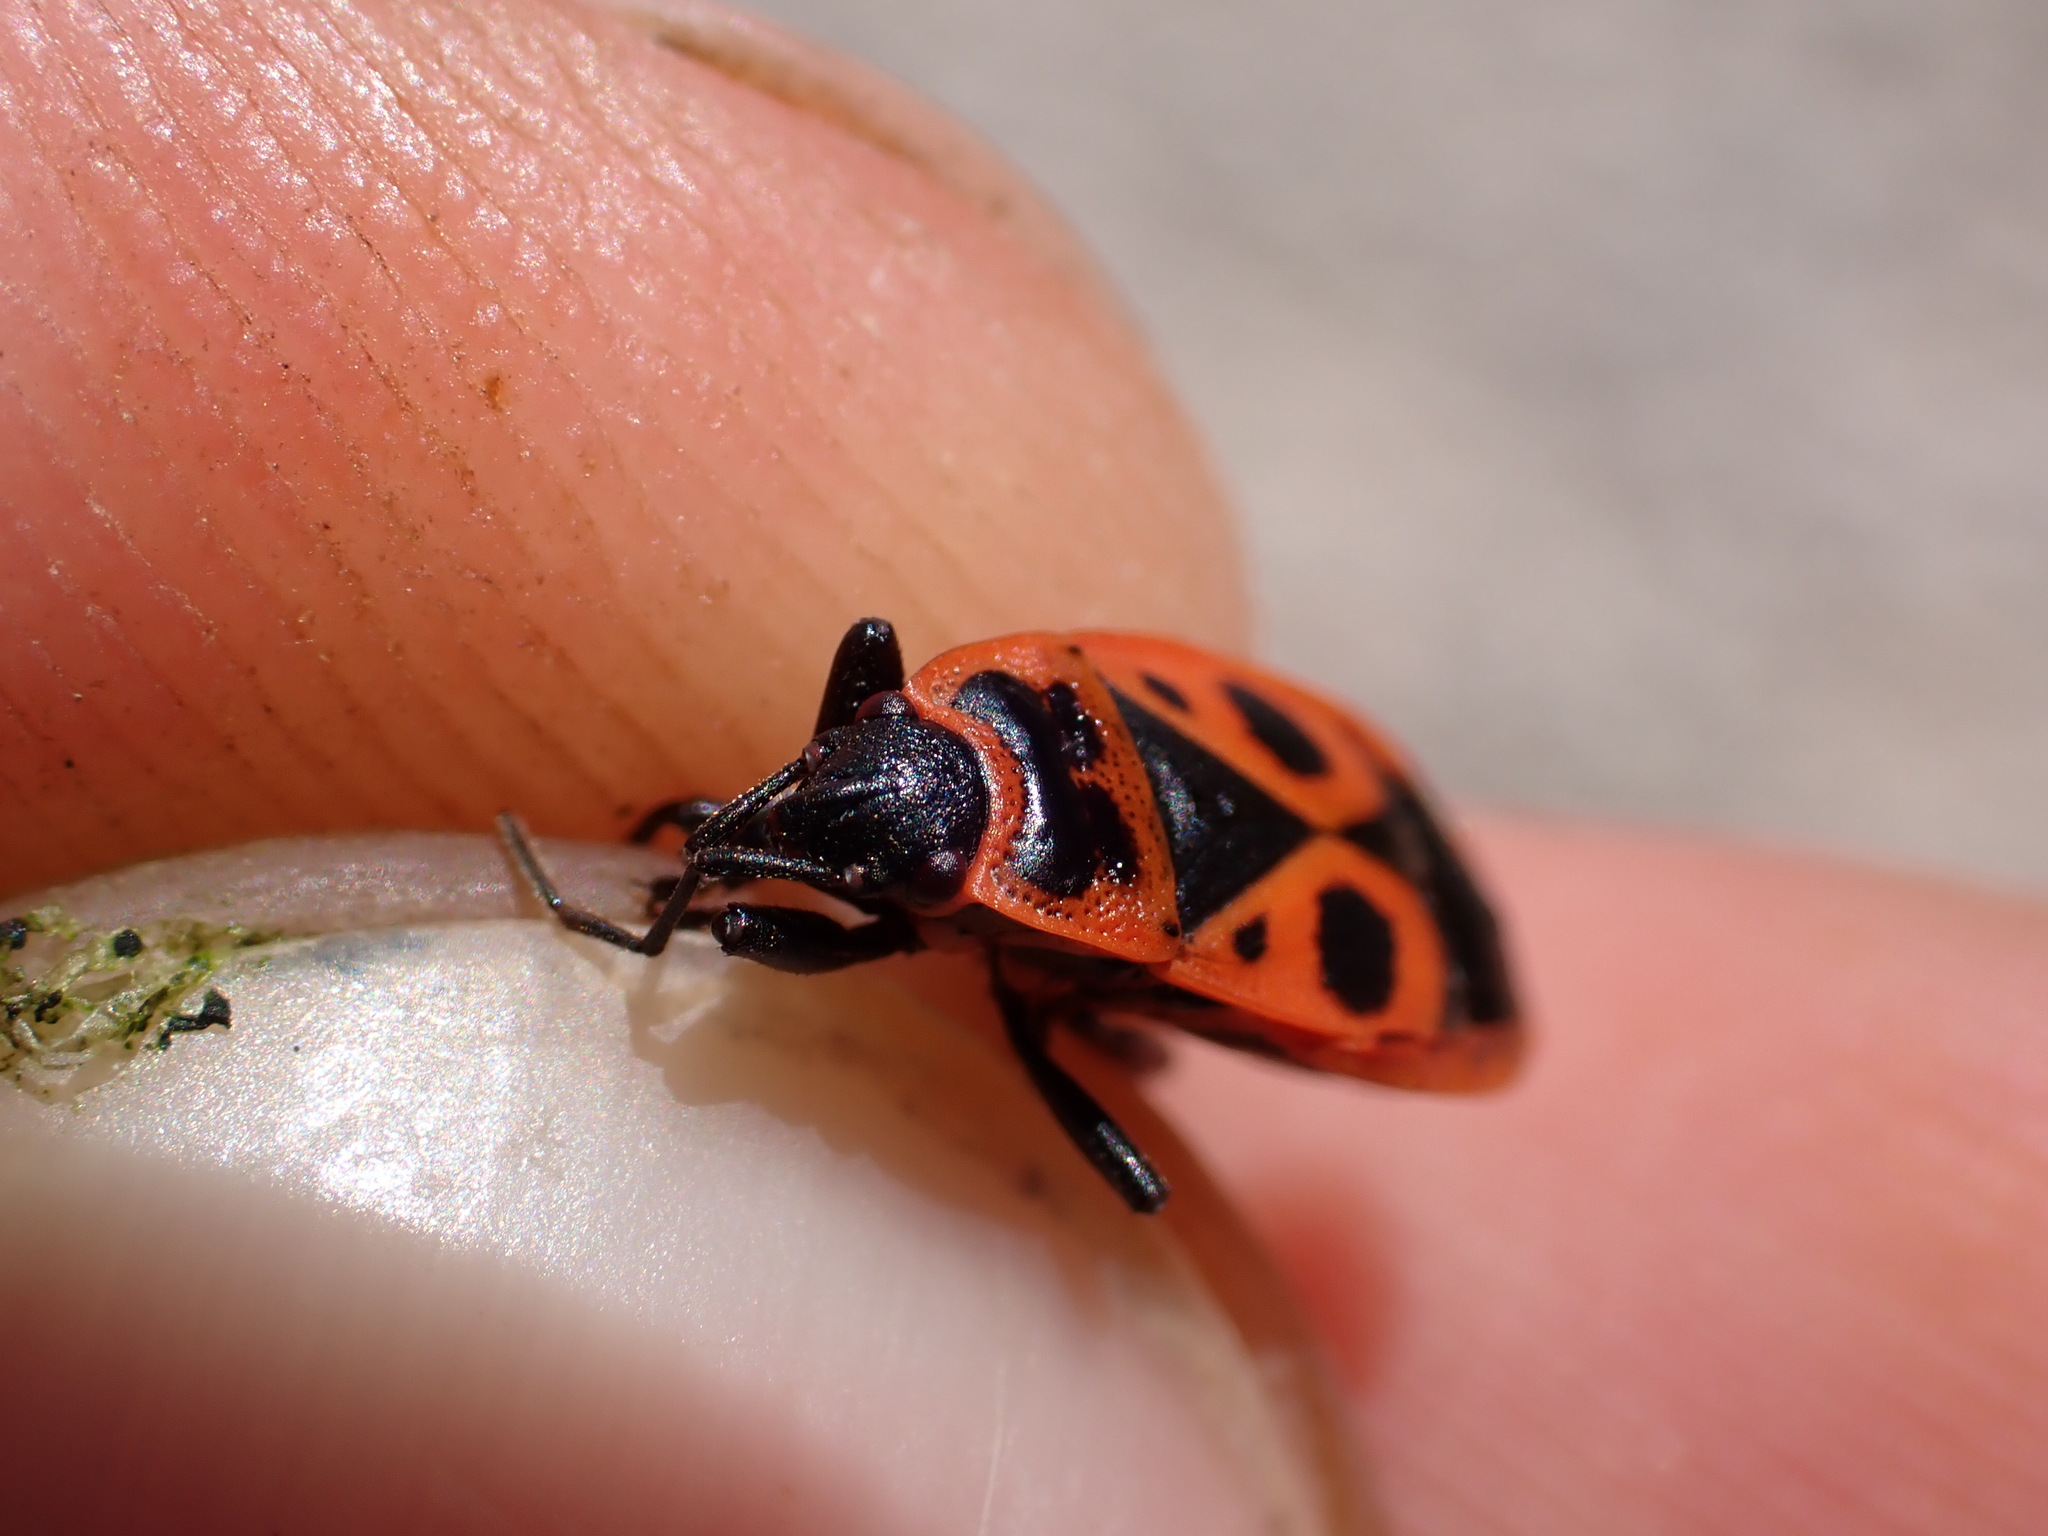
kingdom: Animalia
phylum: Arthropoda
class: Insecta
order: Hemiptera
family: Pyrrhocoridae
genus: Pyrrhocoris
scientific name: Pyrrhocoris apterus
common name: Firebug
